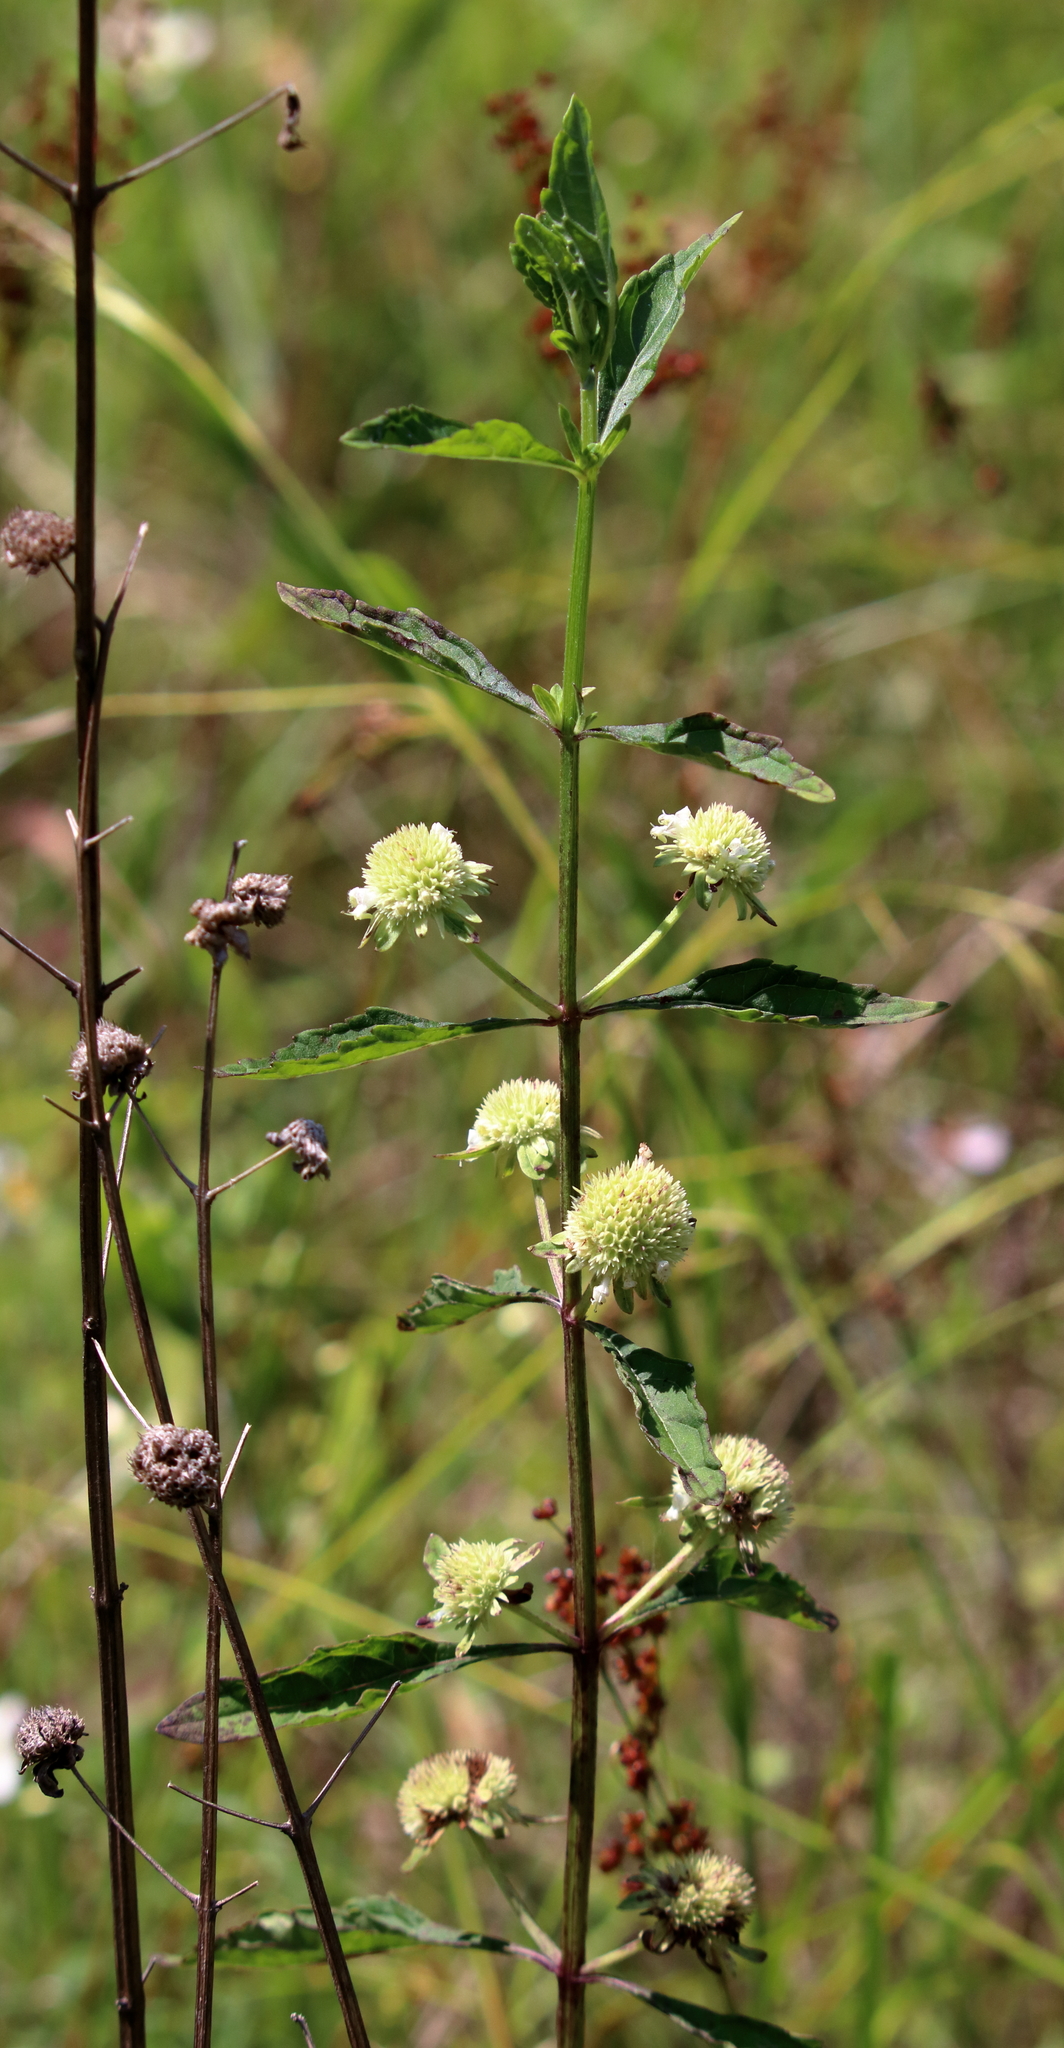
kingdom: Plantae
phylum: Tracheophyta
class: Magnoliopsida
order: Lamiales
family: Lamiaceae
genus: Hyptis
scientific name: Hyptis alata
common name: Cluster bush-mint
